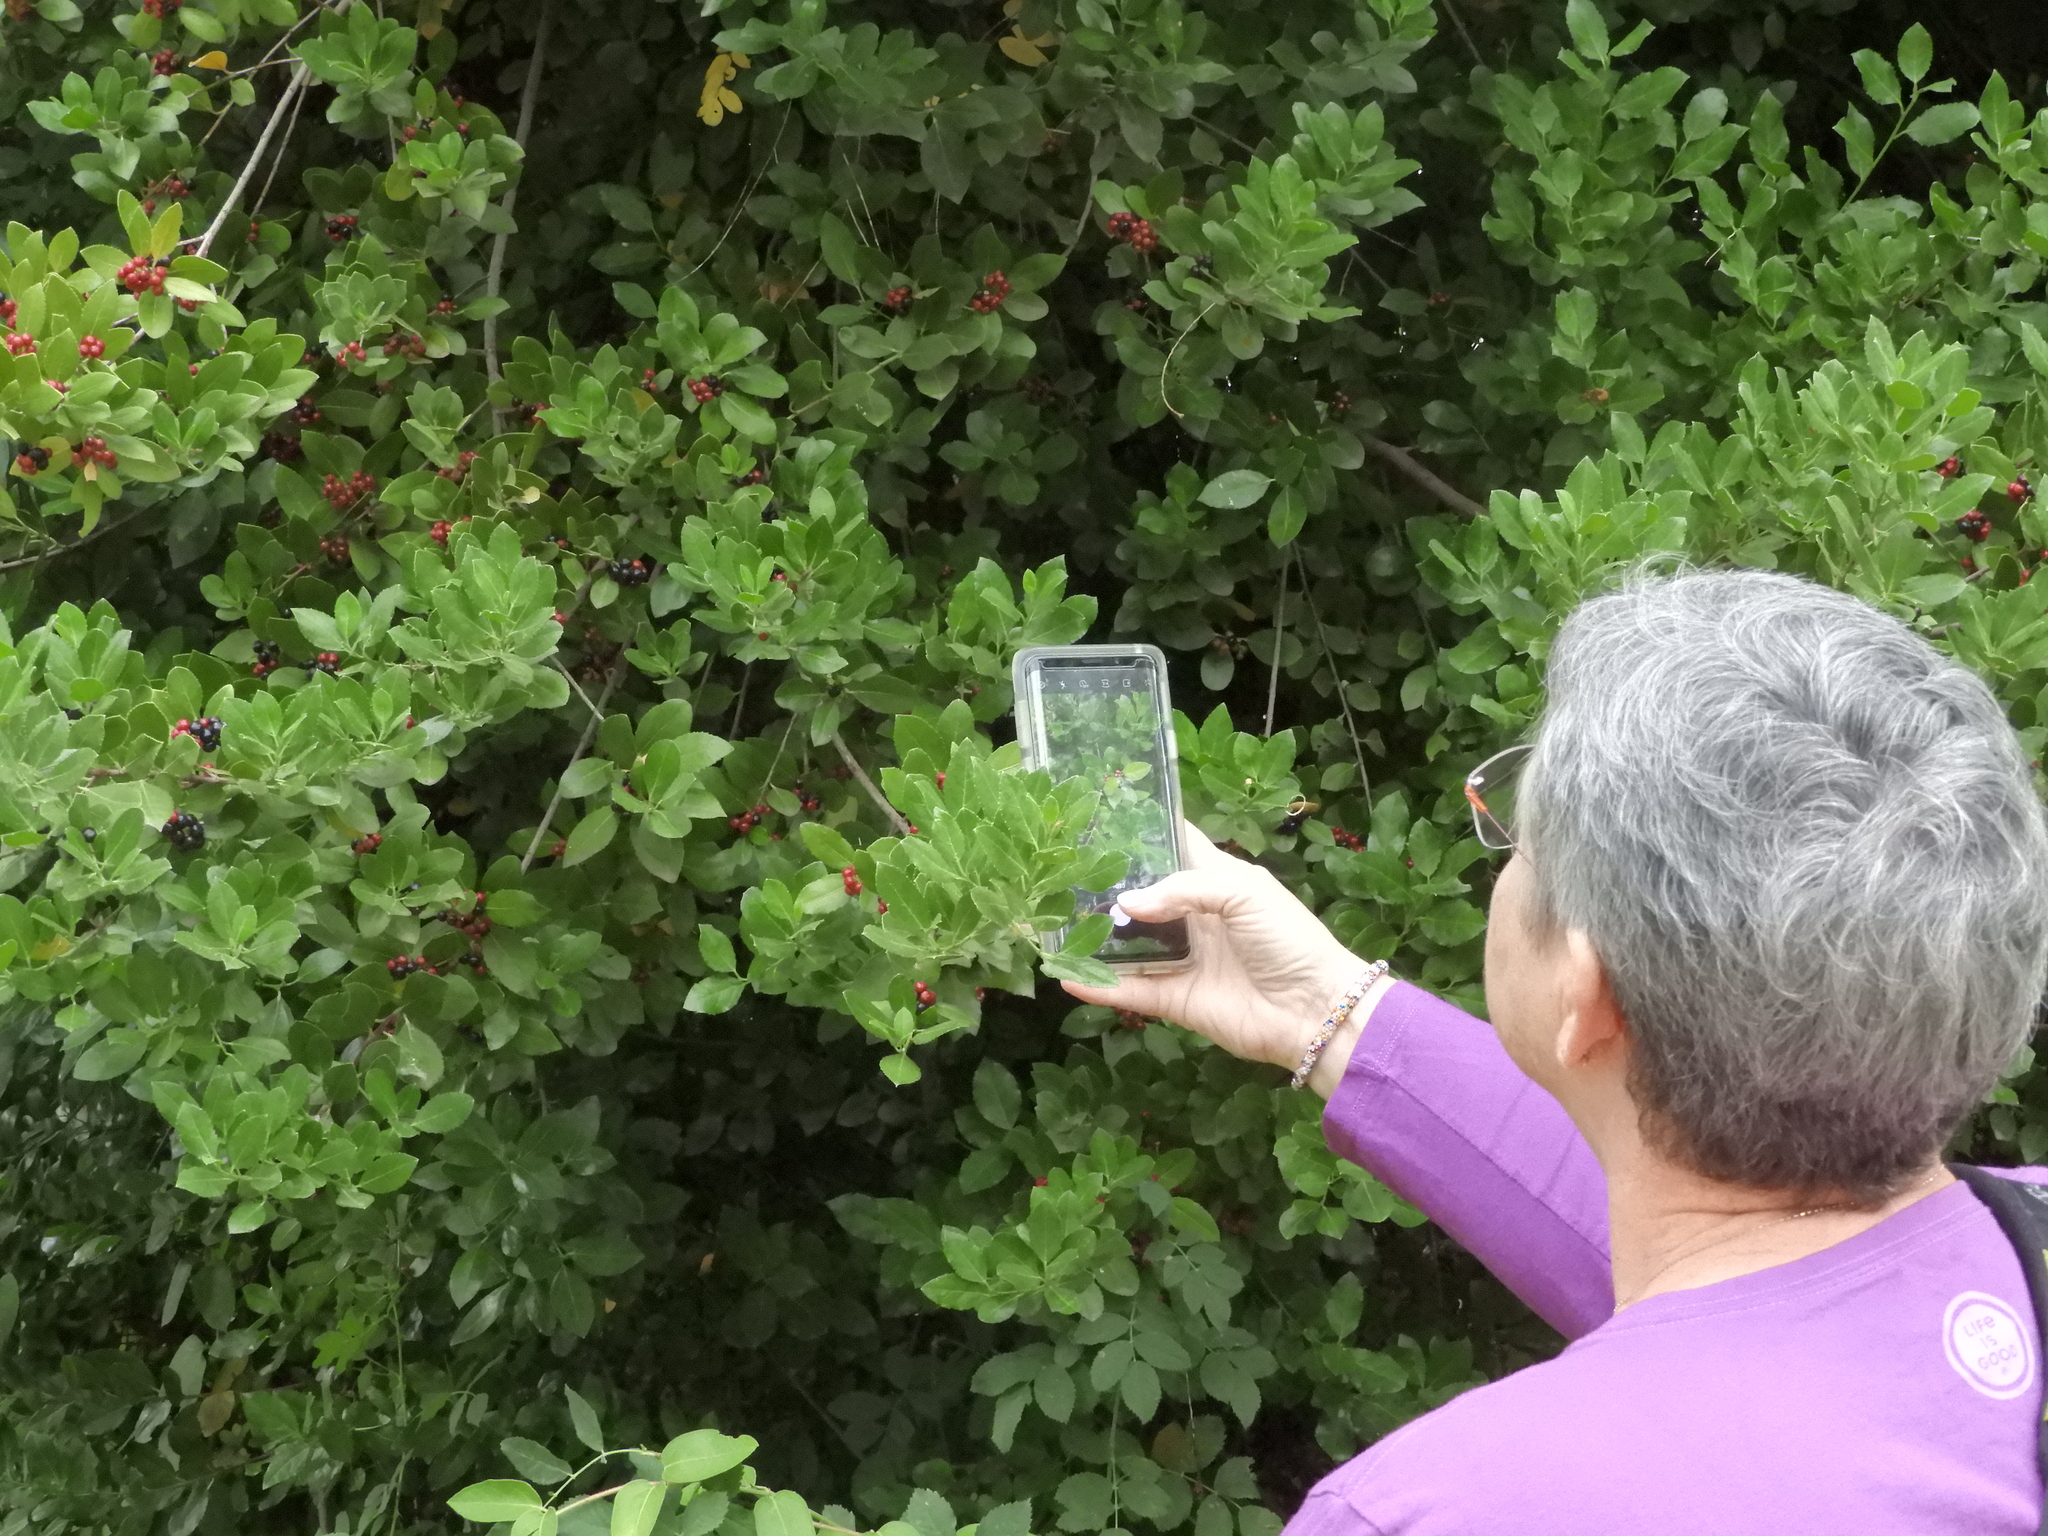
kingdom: Plantae
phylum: Tracheophyta
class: Magnoliopsida
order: Rosales
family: Rhamnaceae
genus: Rhamnus
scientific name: Rhamnus alaternus
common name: Mediterranean buckthorn
